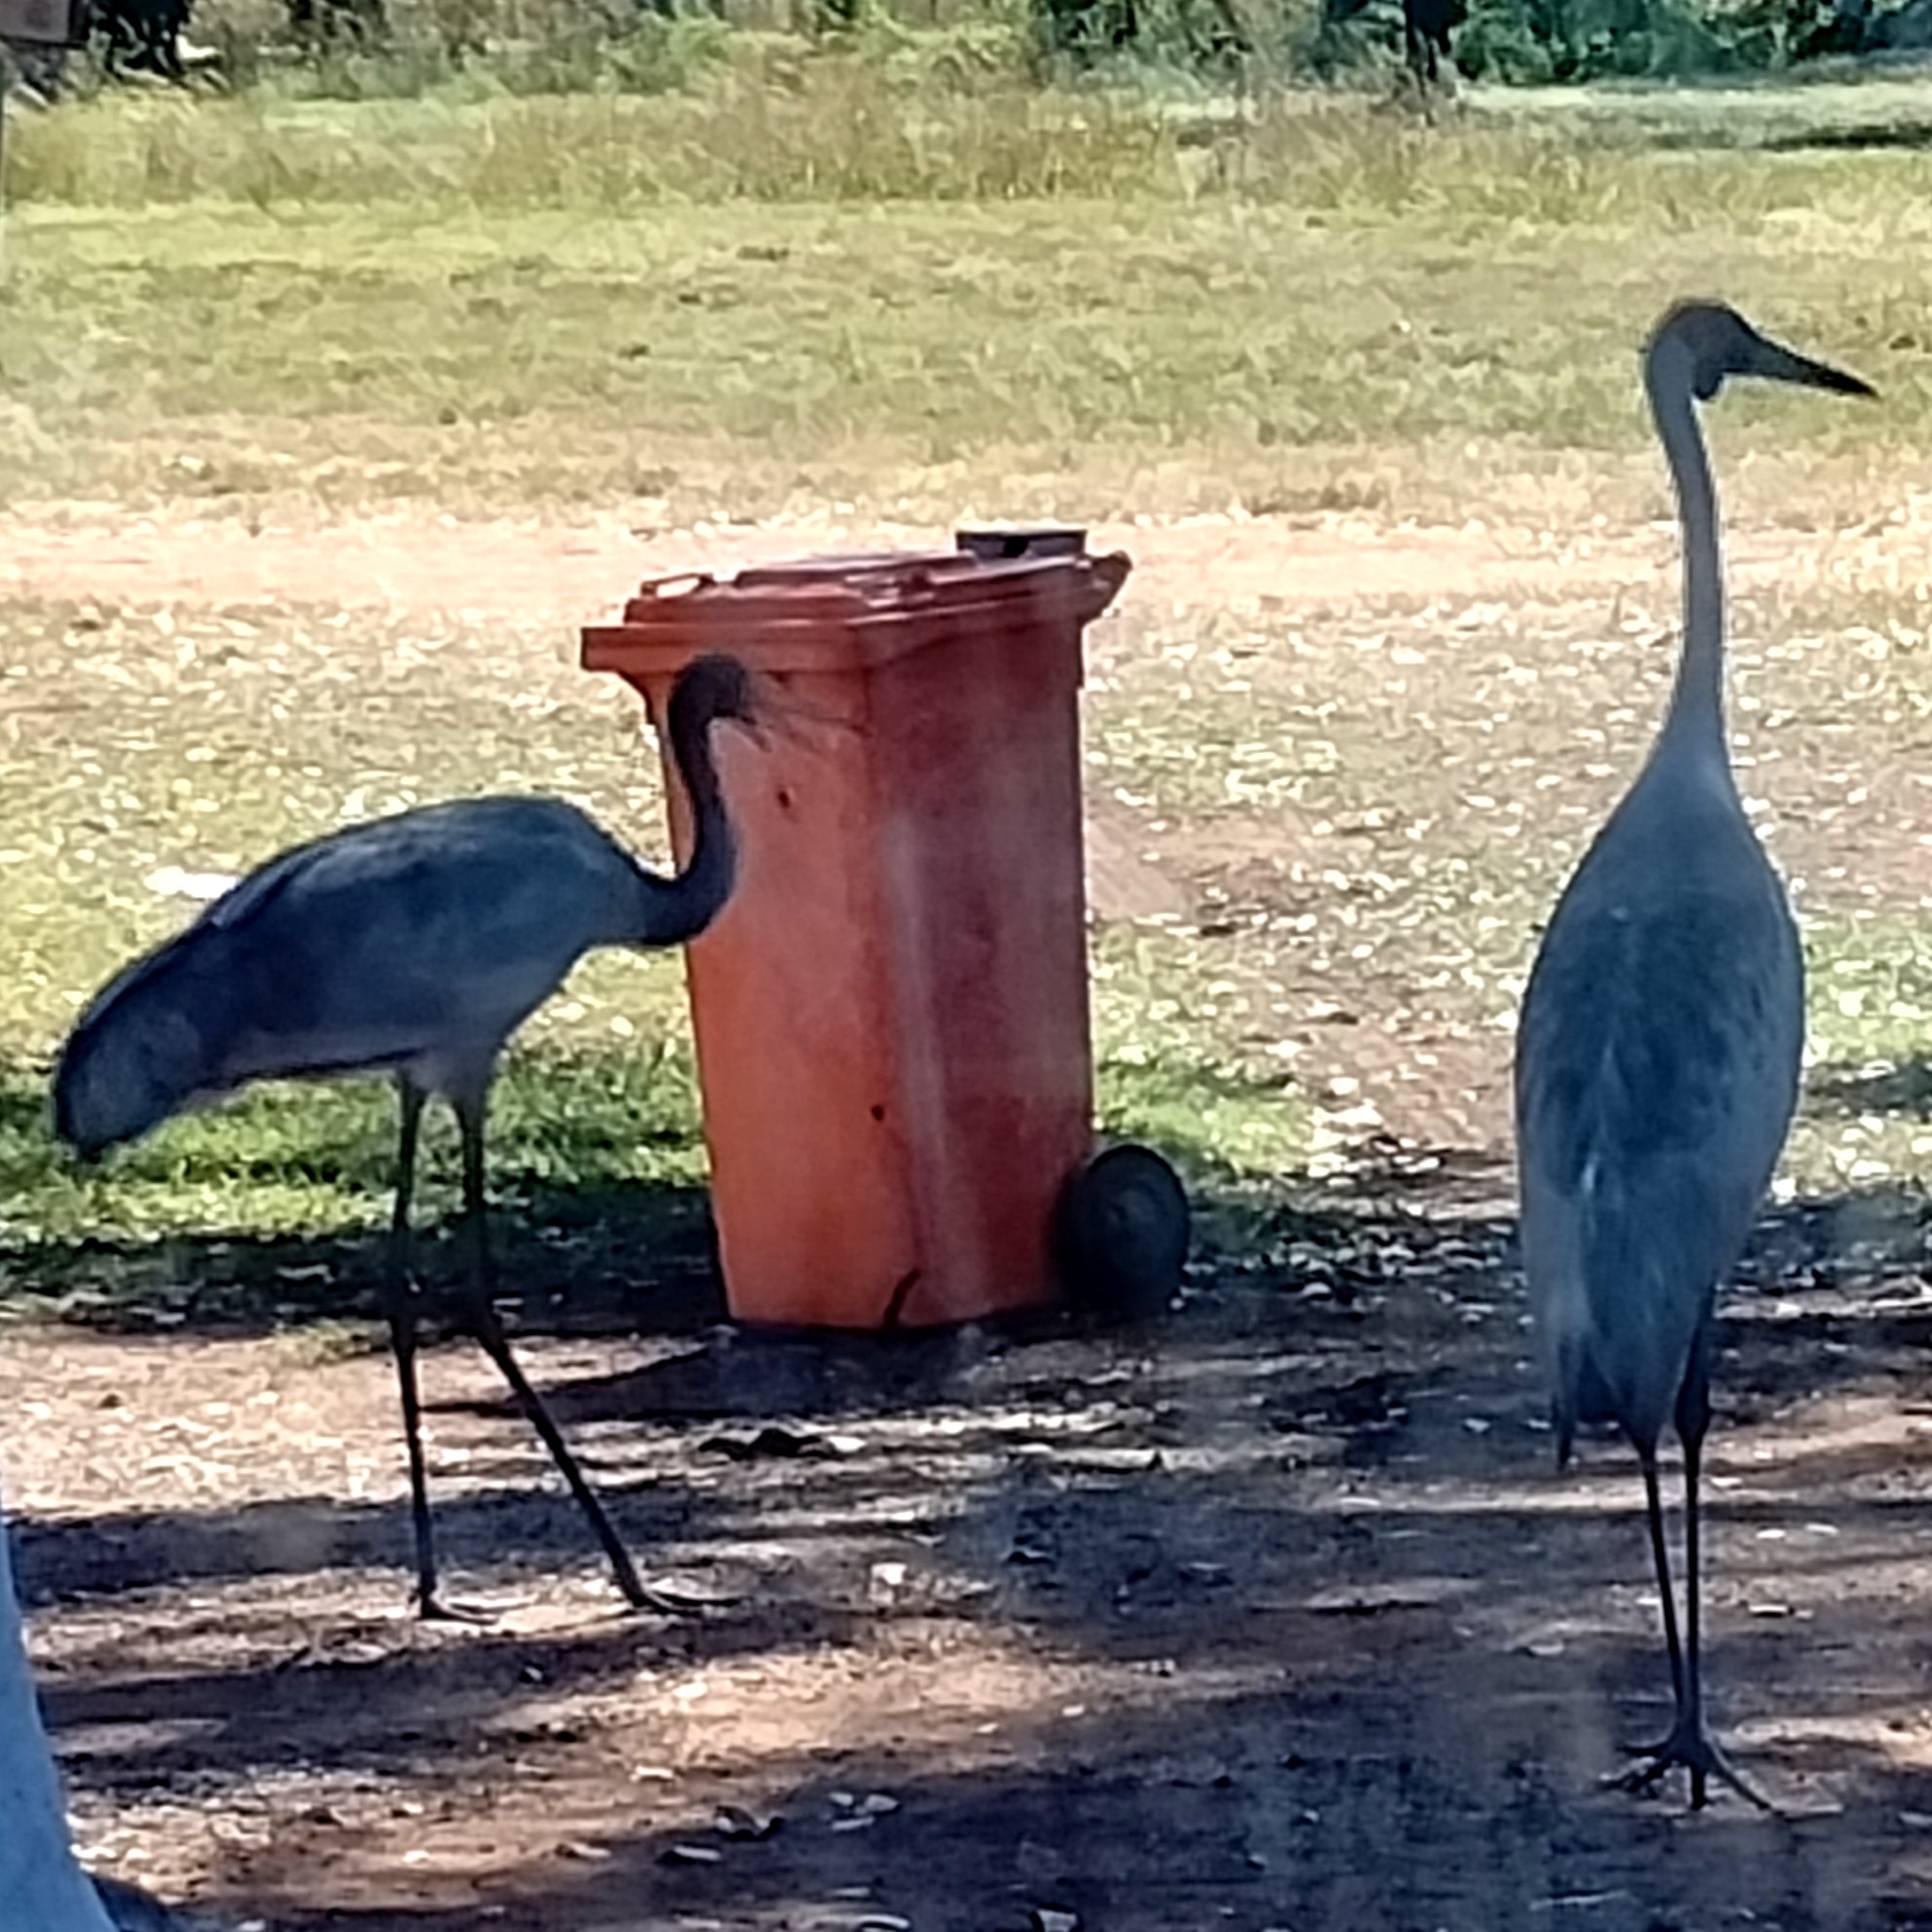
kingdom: Animalia
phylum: Chordata
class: Aves
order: Gruiformes
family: Gruidae
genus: Grus
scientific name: Grus rubicunda
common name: Brolga
